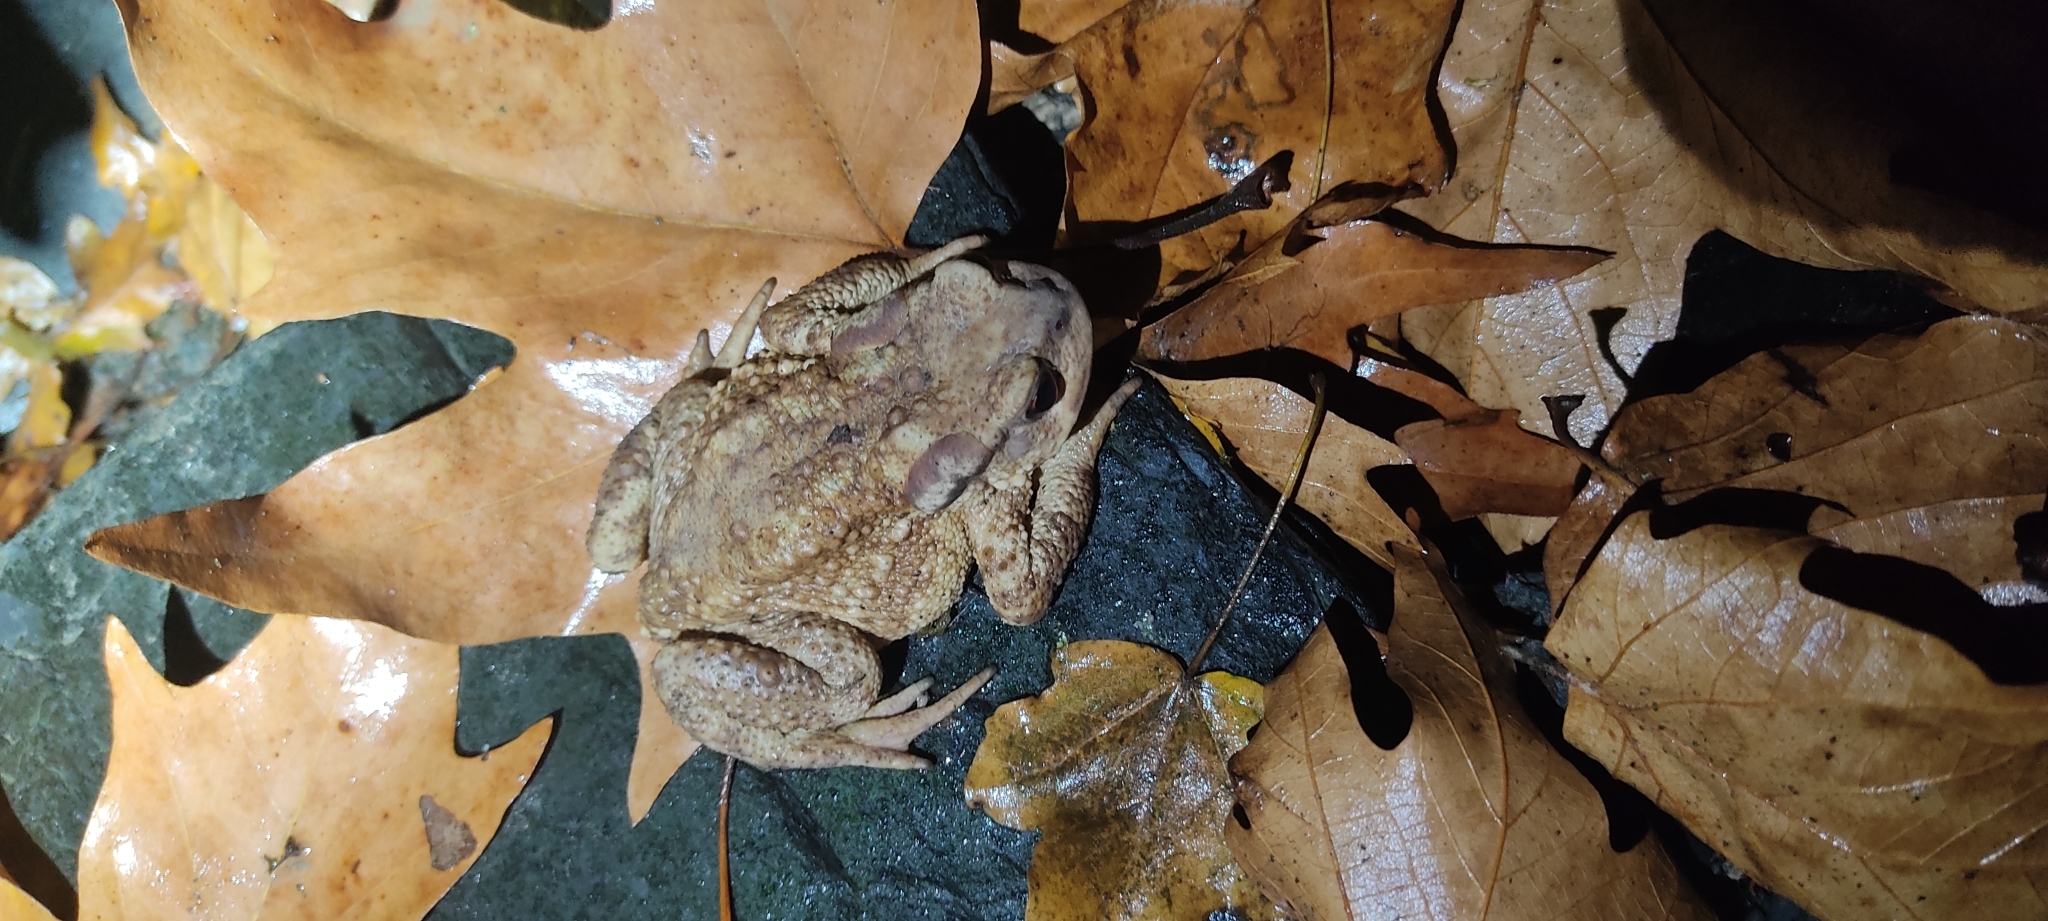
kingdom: Animalia
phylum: Chordata
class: Amphibia
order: Anura
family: Bufonidae
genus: Bufo
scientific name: Bufo spinosus
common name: Western common toad
